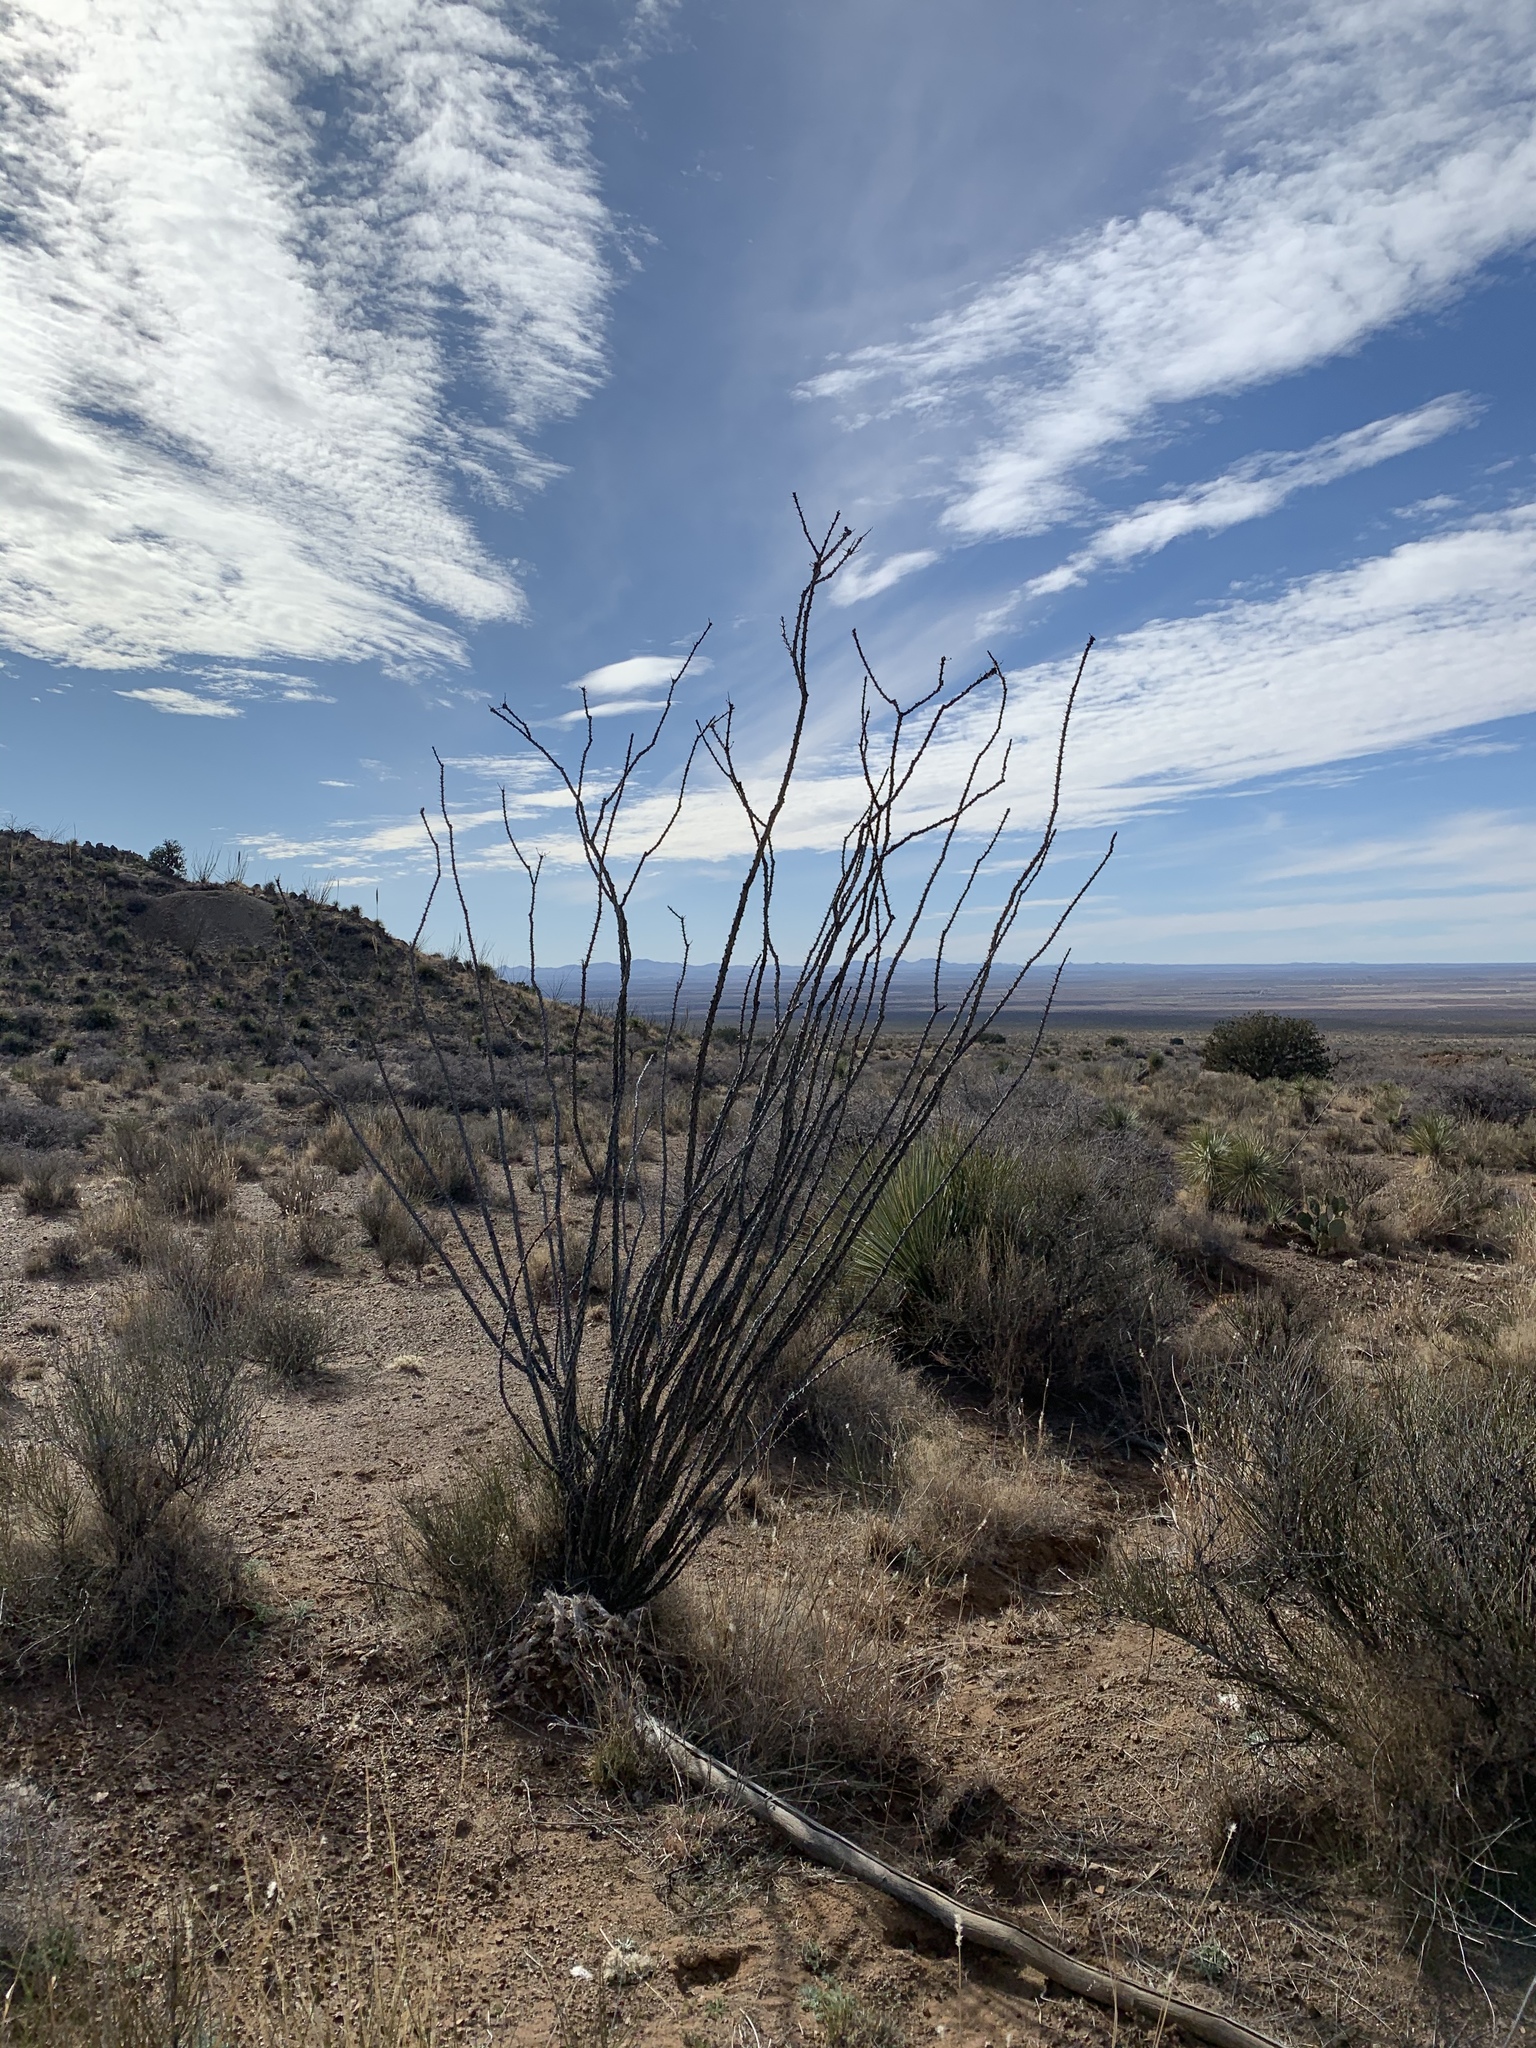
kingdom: Plantae
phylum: Tracheophyta
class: Magnoliopsida
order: Ericales
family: Fouquieriaceae
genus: Fouquieria
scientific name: Fouquieria splendens
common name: Vine-cactus
